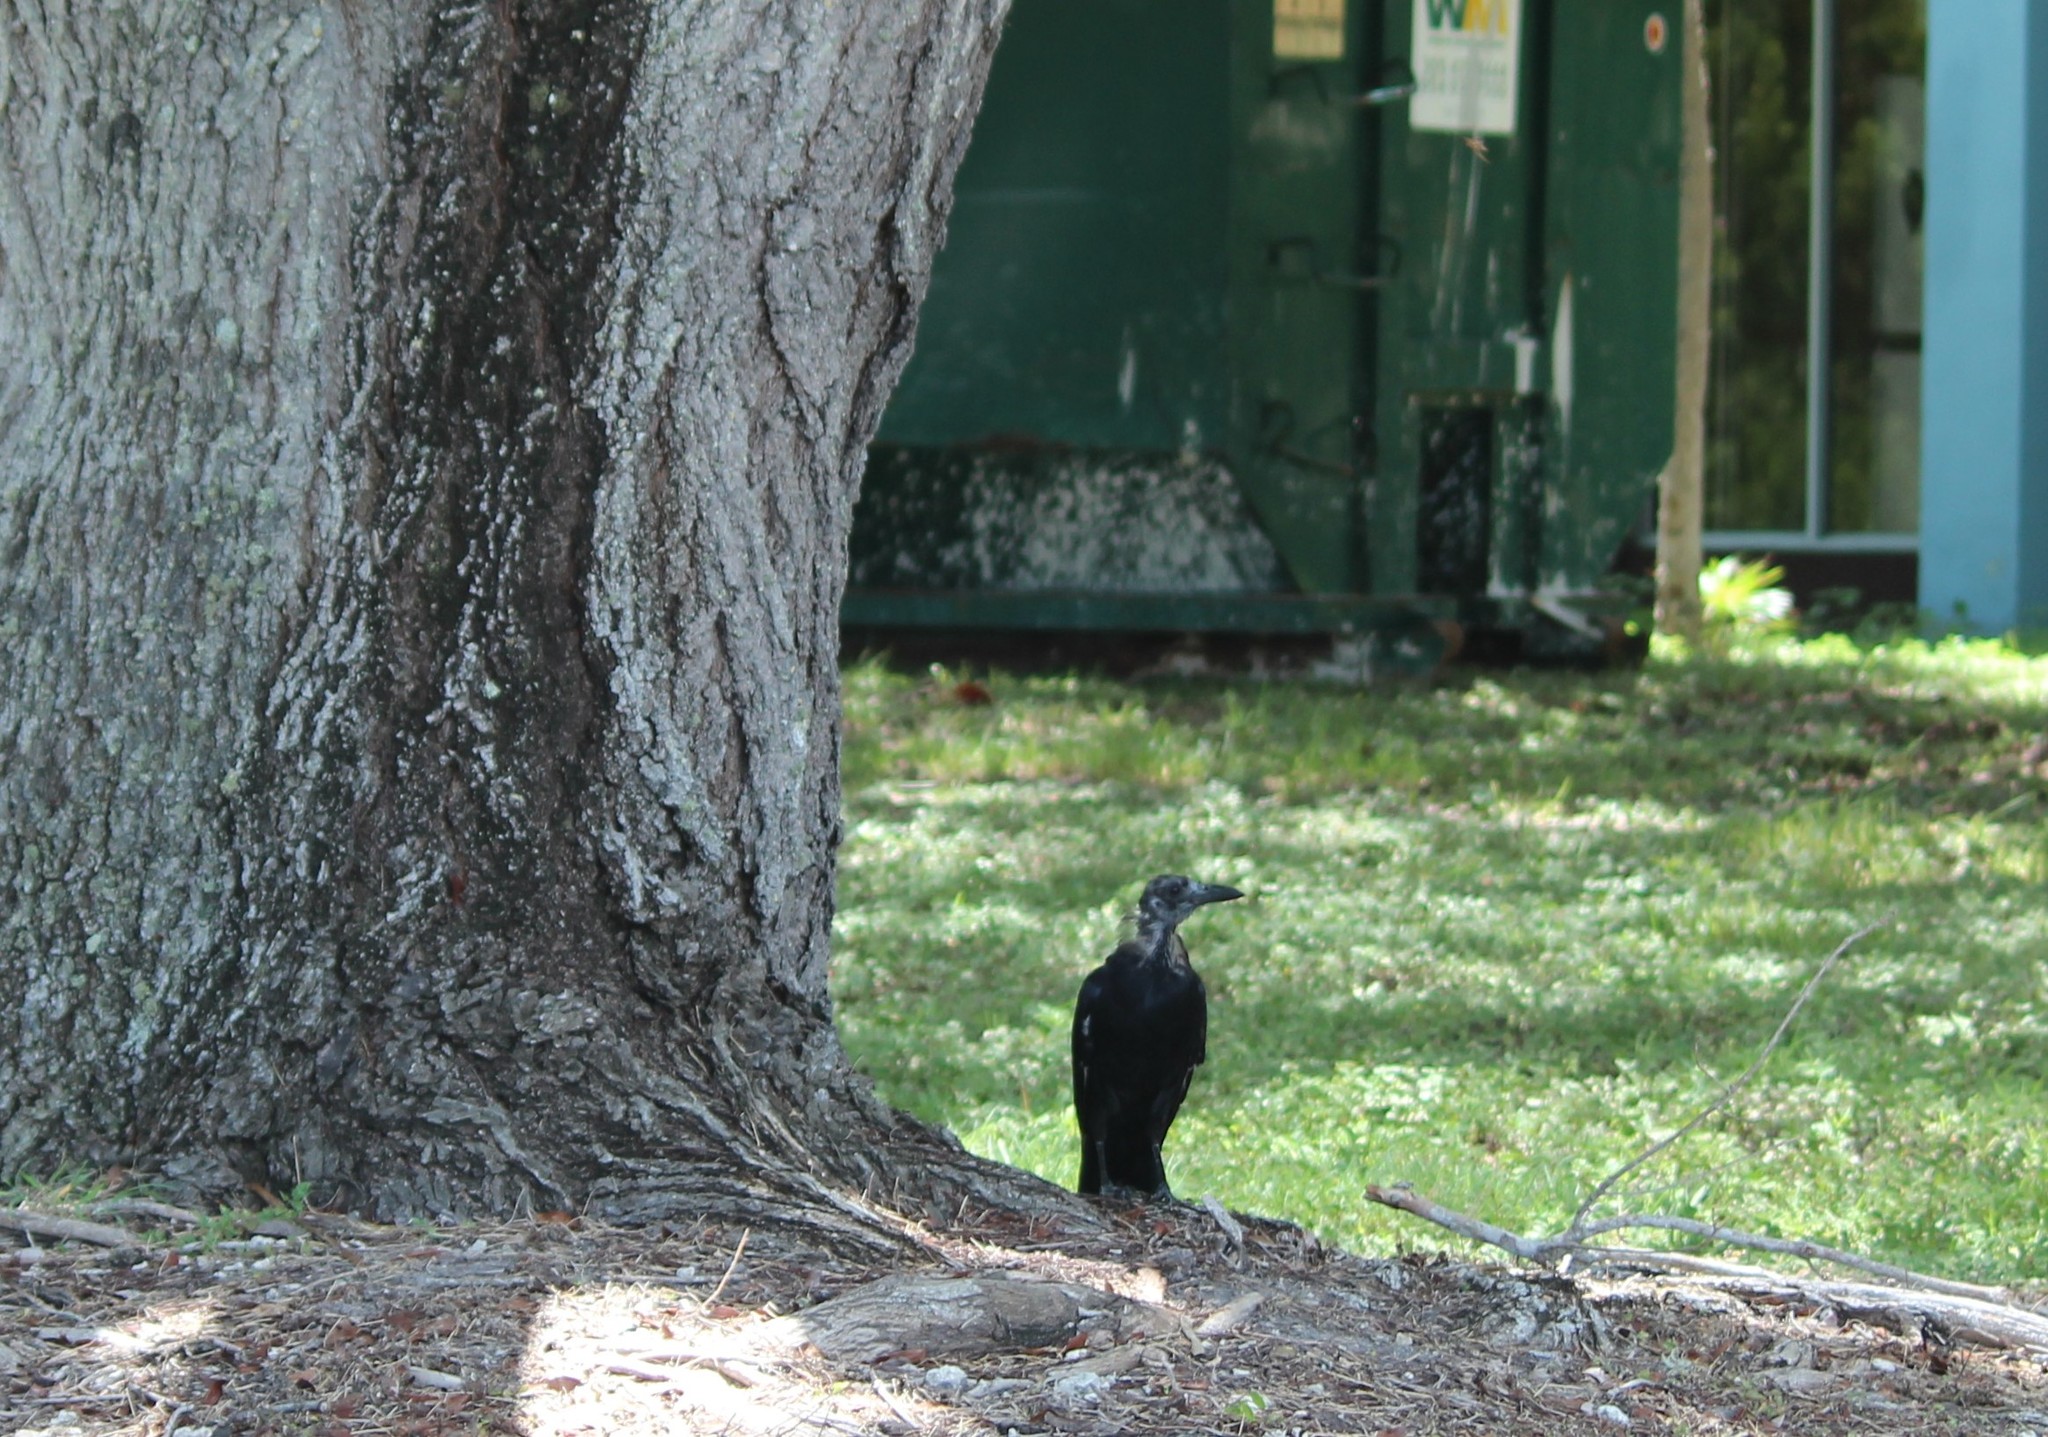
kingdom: Animalia
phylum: Chordata
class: Aves
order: Passeriformes
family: Corvidae
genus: Corvus
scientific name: Corvus brachyrhynchos
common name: American crow
